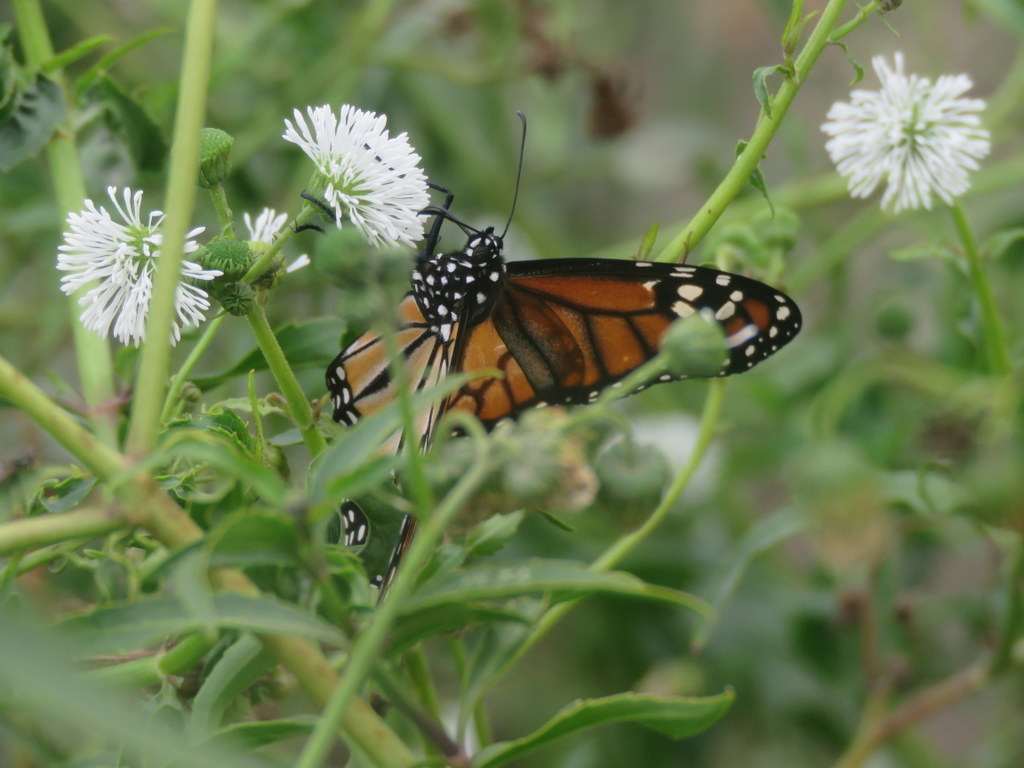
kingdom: Animalia
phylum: Arthropoda
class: Insecta
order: Lepidoptera
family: Nymphalidae
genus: Danaus
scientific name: Danaus erippus
